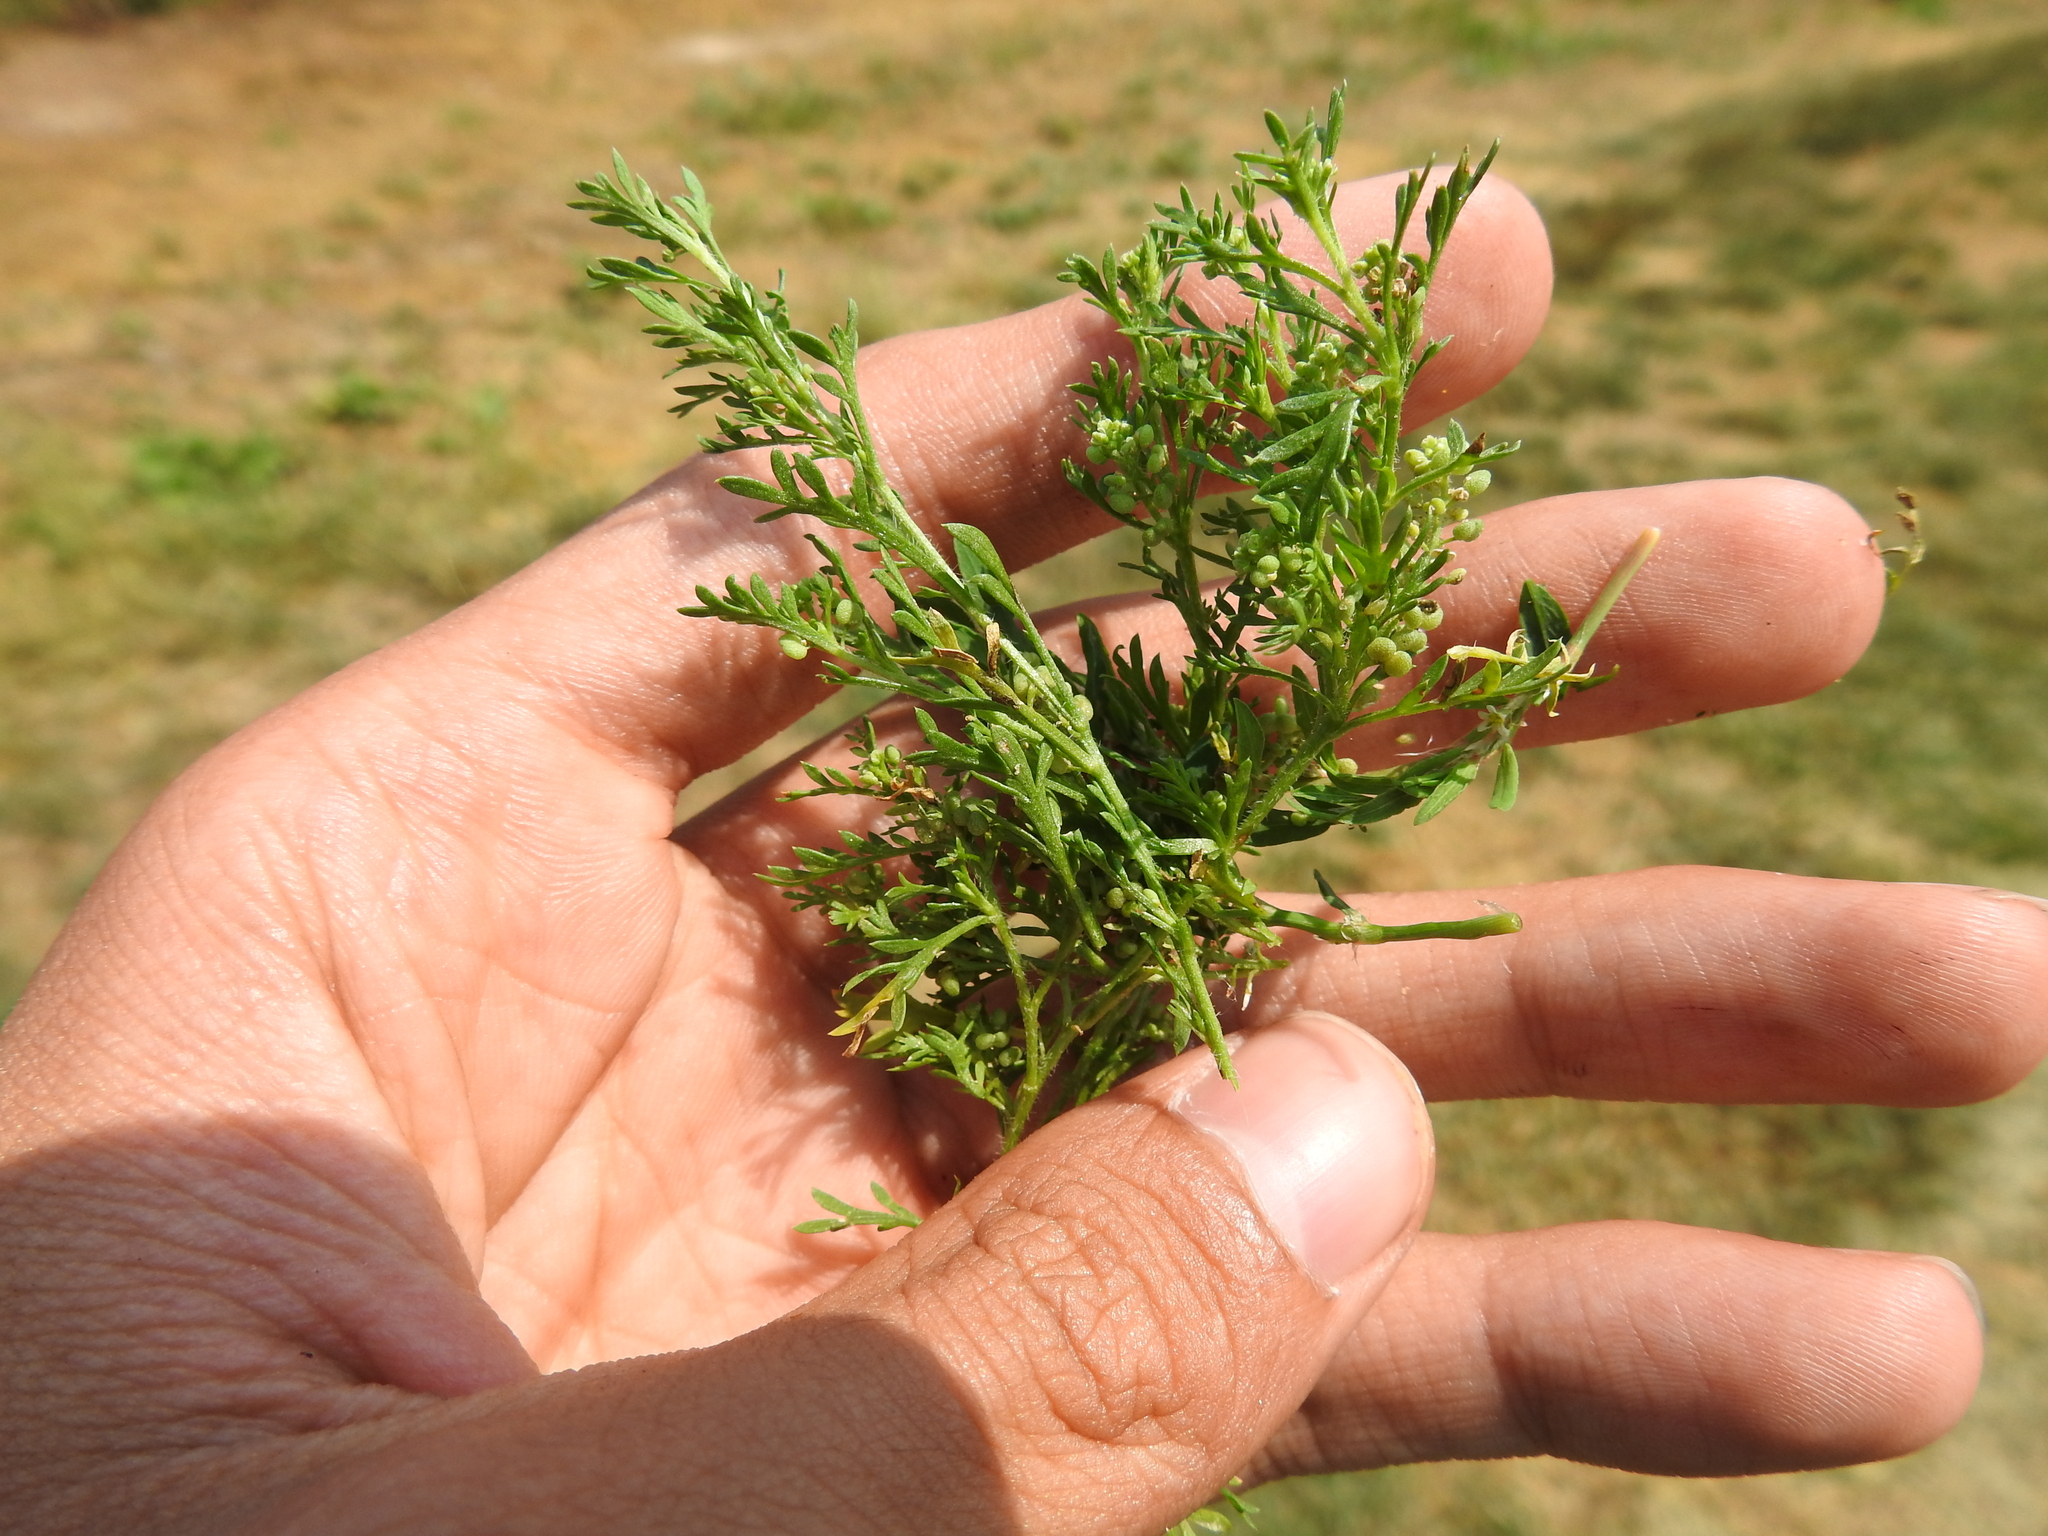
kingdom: Plantae
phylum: Tracheophyta
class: Magnoliopsida
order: Brassicales
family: Brassicaceae
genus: Lepidium
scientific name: Lepidium didymum
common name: Lesser swinecress
